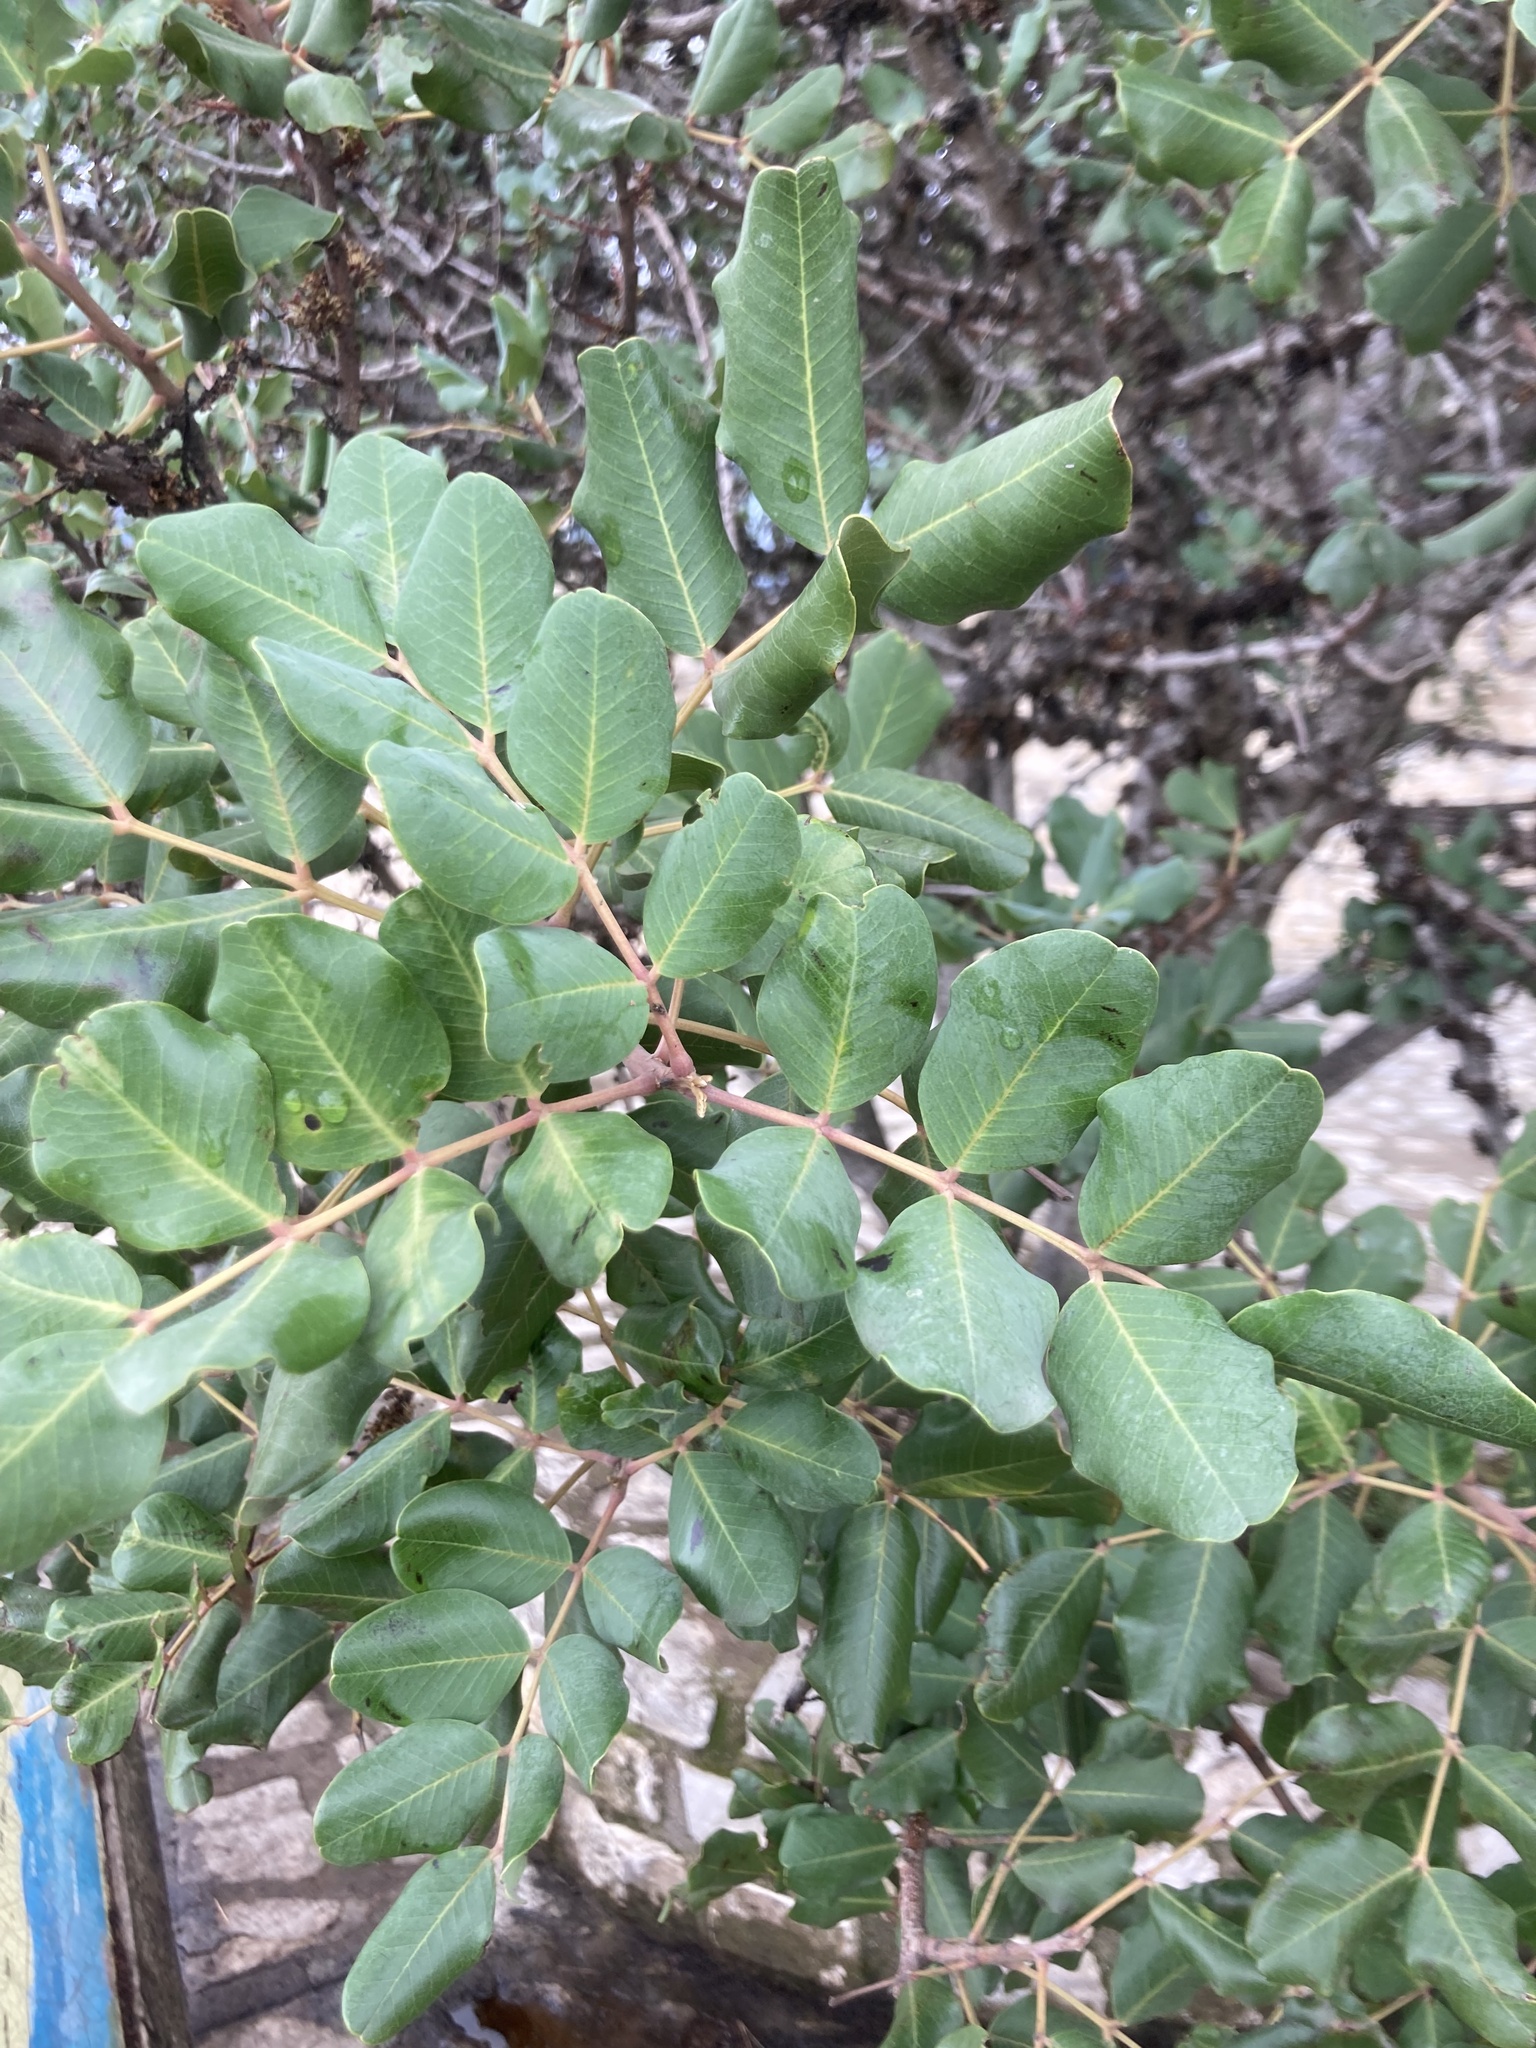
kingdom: Plantae
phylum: Tracheophyta
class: Magnoliopsida
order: Fabales
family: Fabaceae
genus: Ceratonia
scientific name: Ceratonia siliqua
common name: Carob
